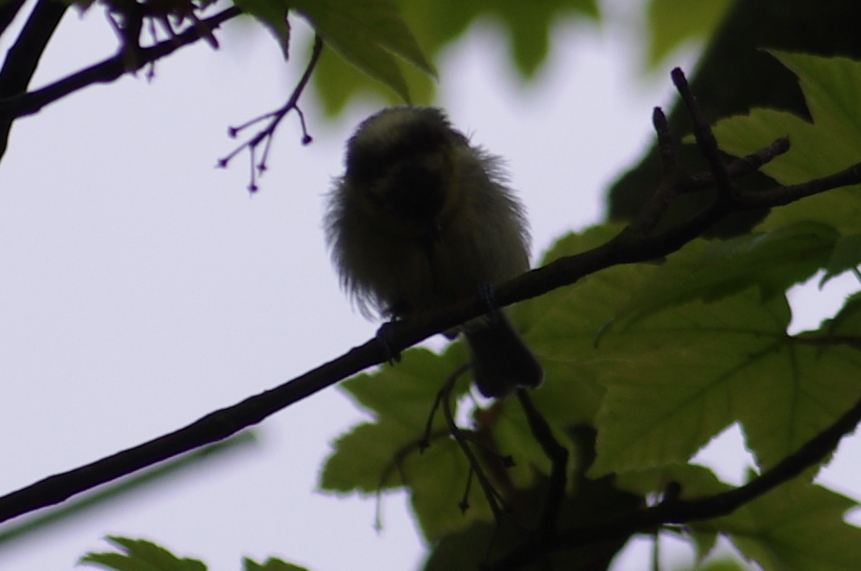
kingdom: Animalia
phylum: Chordata
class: Aves
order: Passeriformes
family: Paridae
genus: Cyanistes
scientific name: Cyanistes caeruleus
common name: Eurasian blue tit
